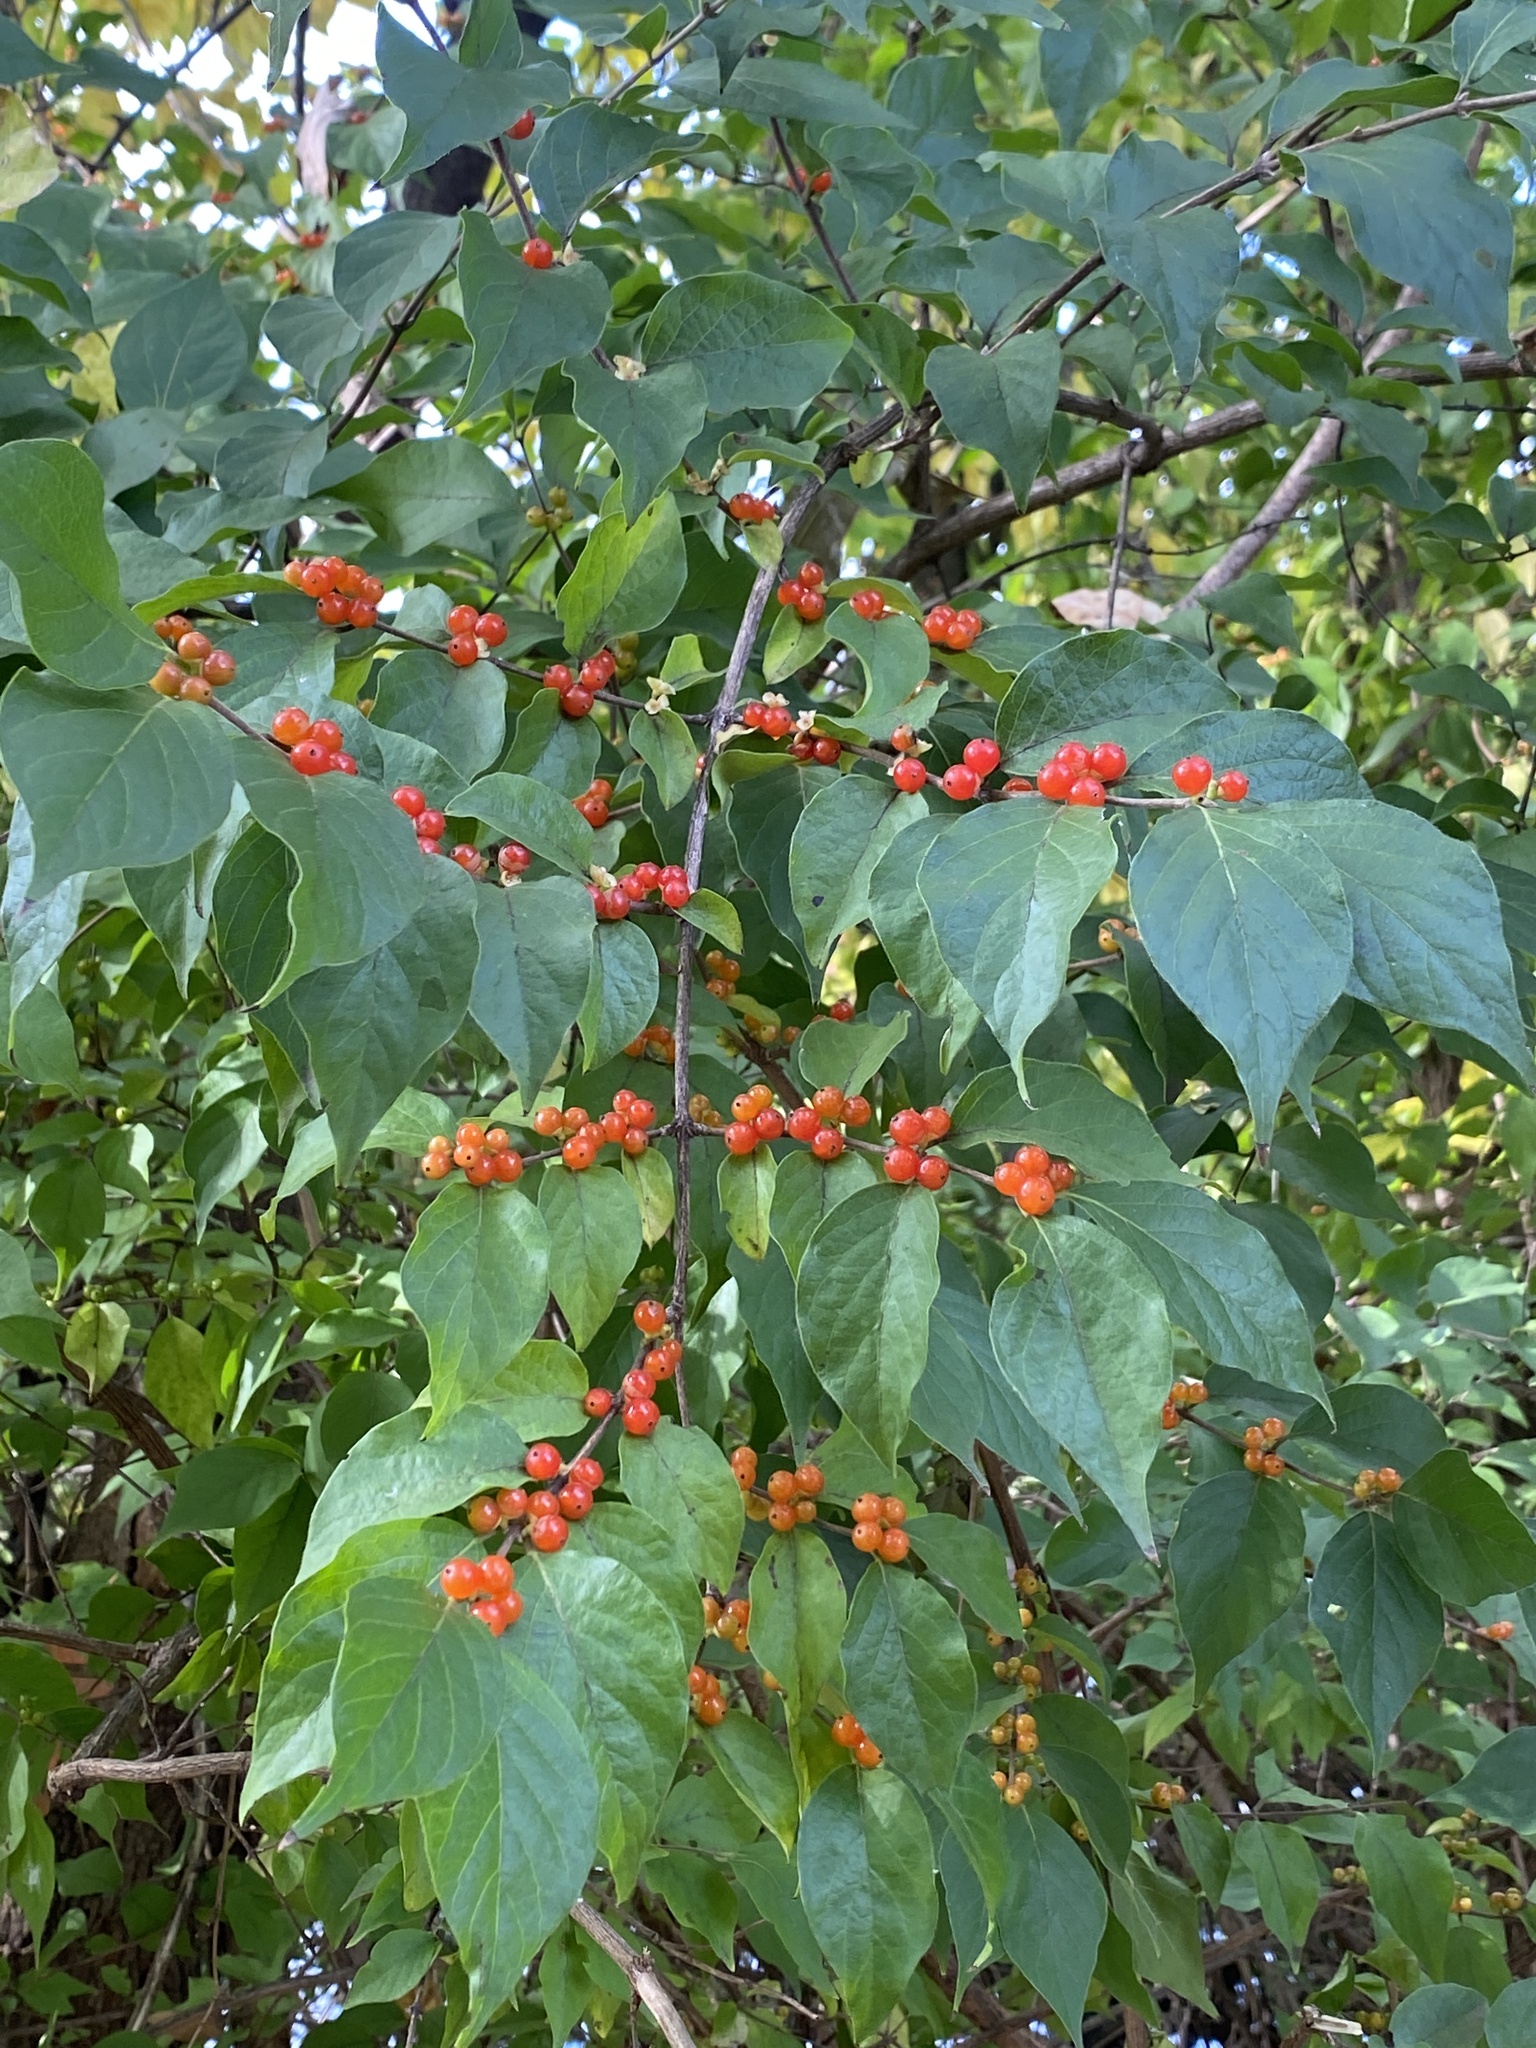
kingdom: Plantae
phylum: Tracheophyta
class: Magnoliopsida
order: Dipsacales
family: Caprifoliaceae
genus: Lonicera
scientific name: Lonicera maackii
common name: Amur honeysuckle
